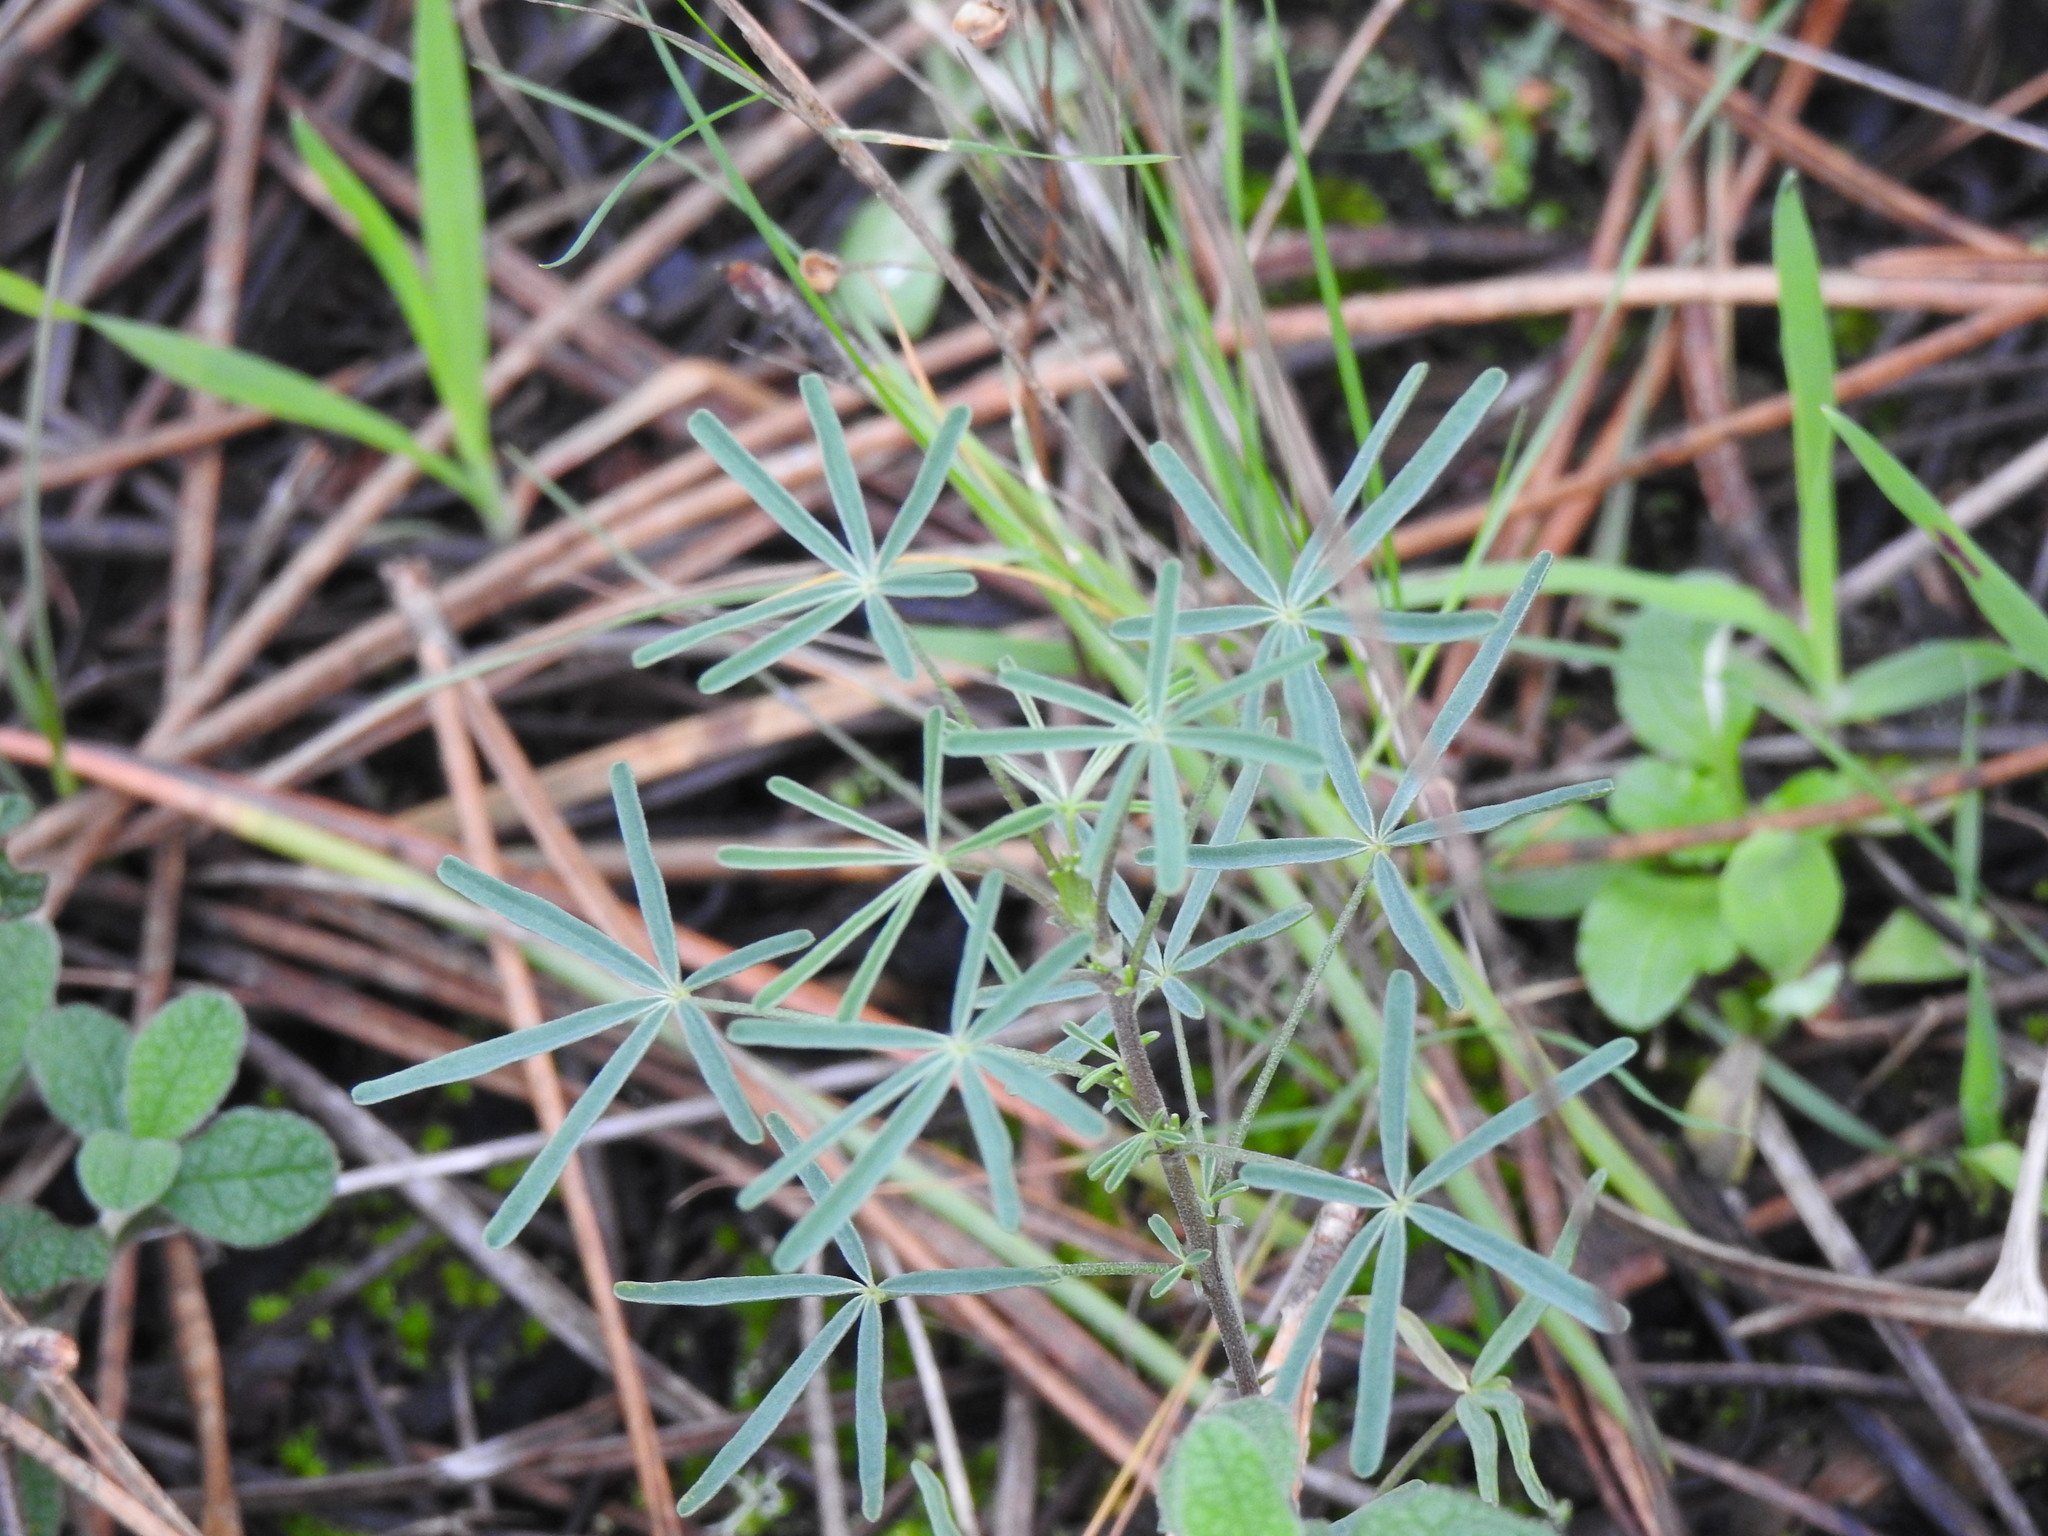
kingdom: Plantae
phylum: Tracheophyta
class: Magnoliopsida
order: Fabales
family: Fabaceae
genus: Lupinus
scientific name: Lupinus angustifolius
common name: Narrow-leaved lupin
